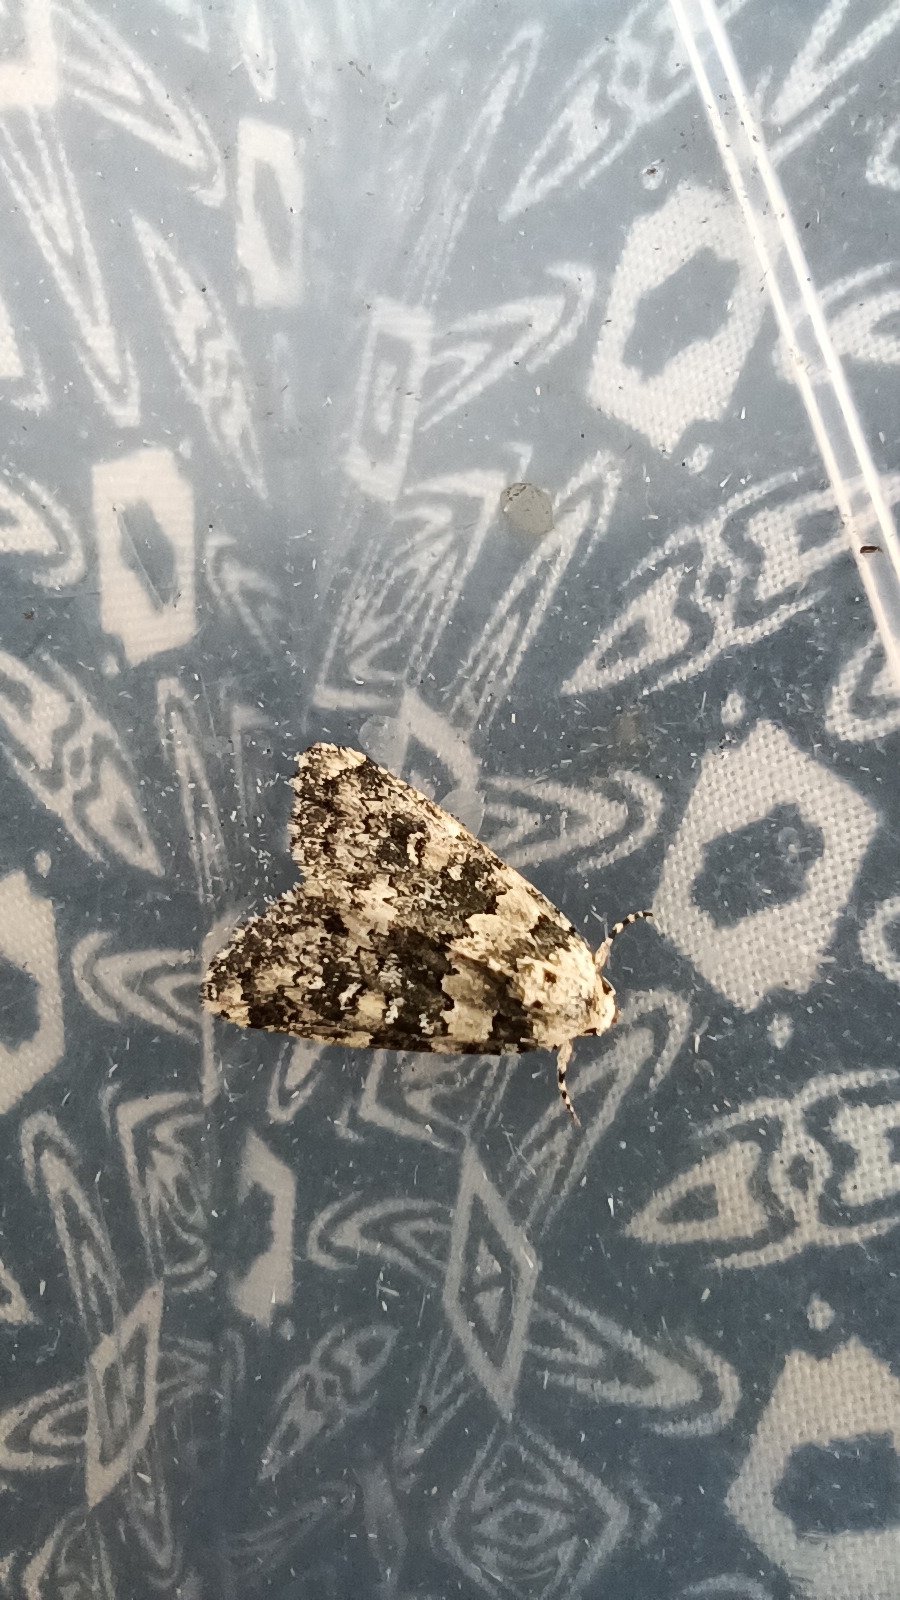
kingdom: Animalia
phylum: Arthropoda
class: Insecta
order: Lepidoptera
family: Noctuidae
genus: Bryophila
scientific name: Bryophila domestica
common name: Marbled beauty
